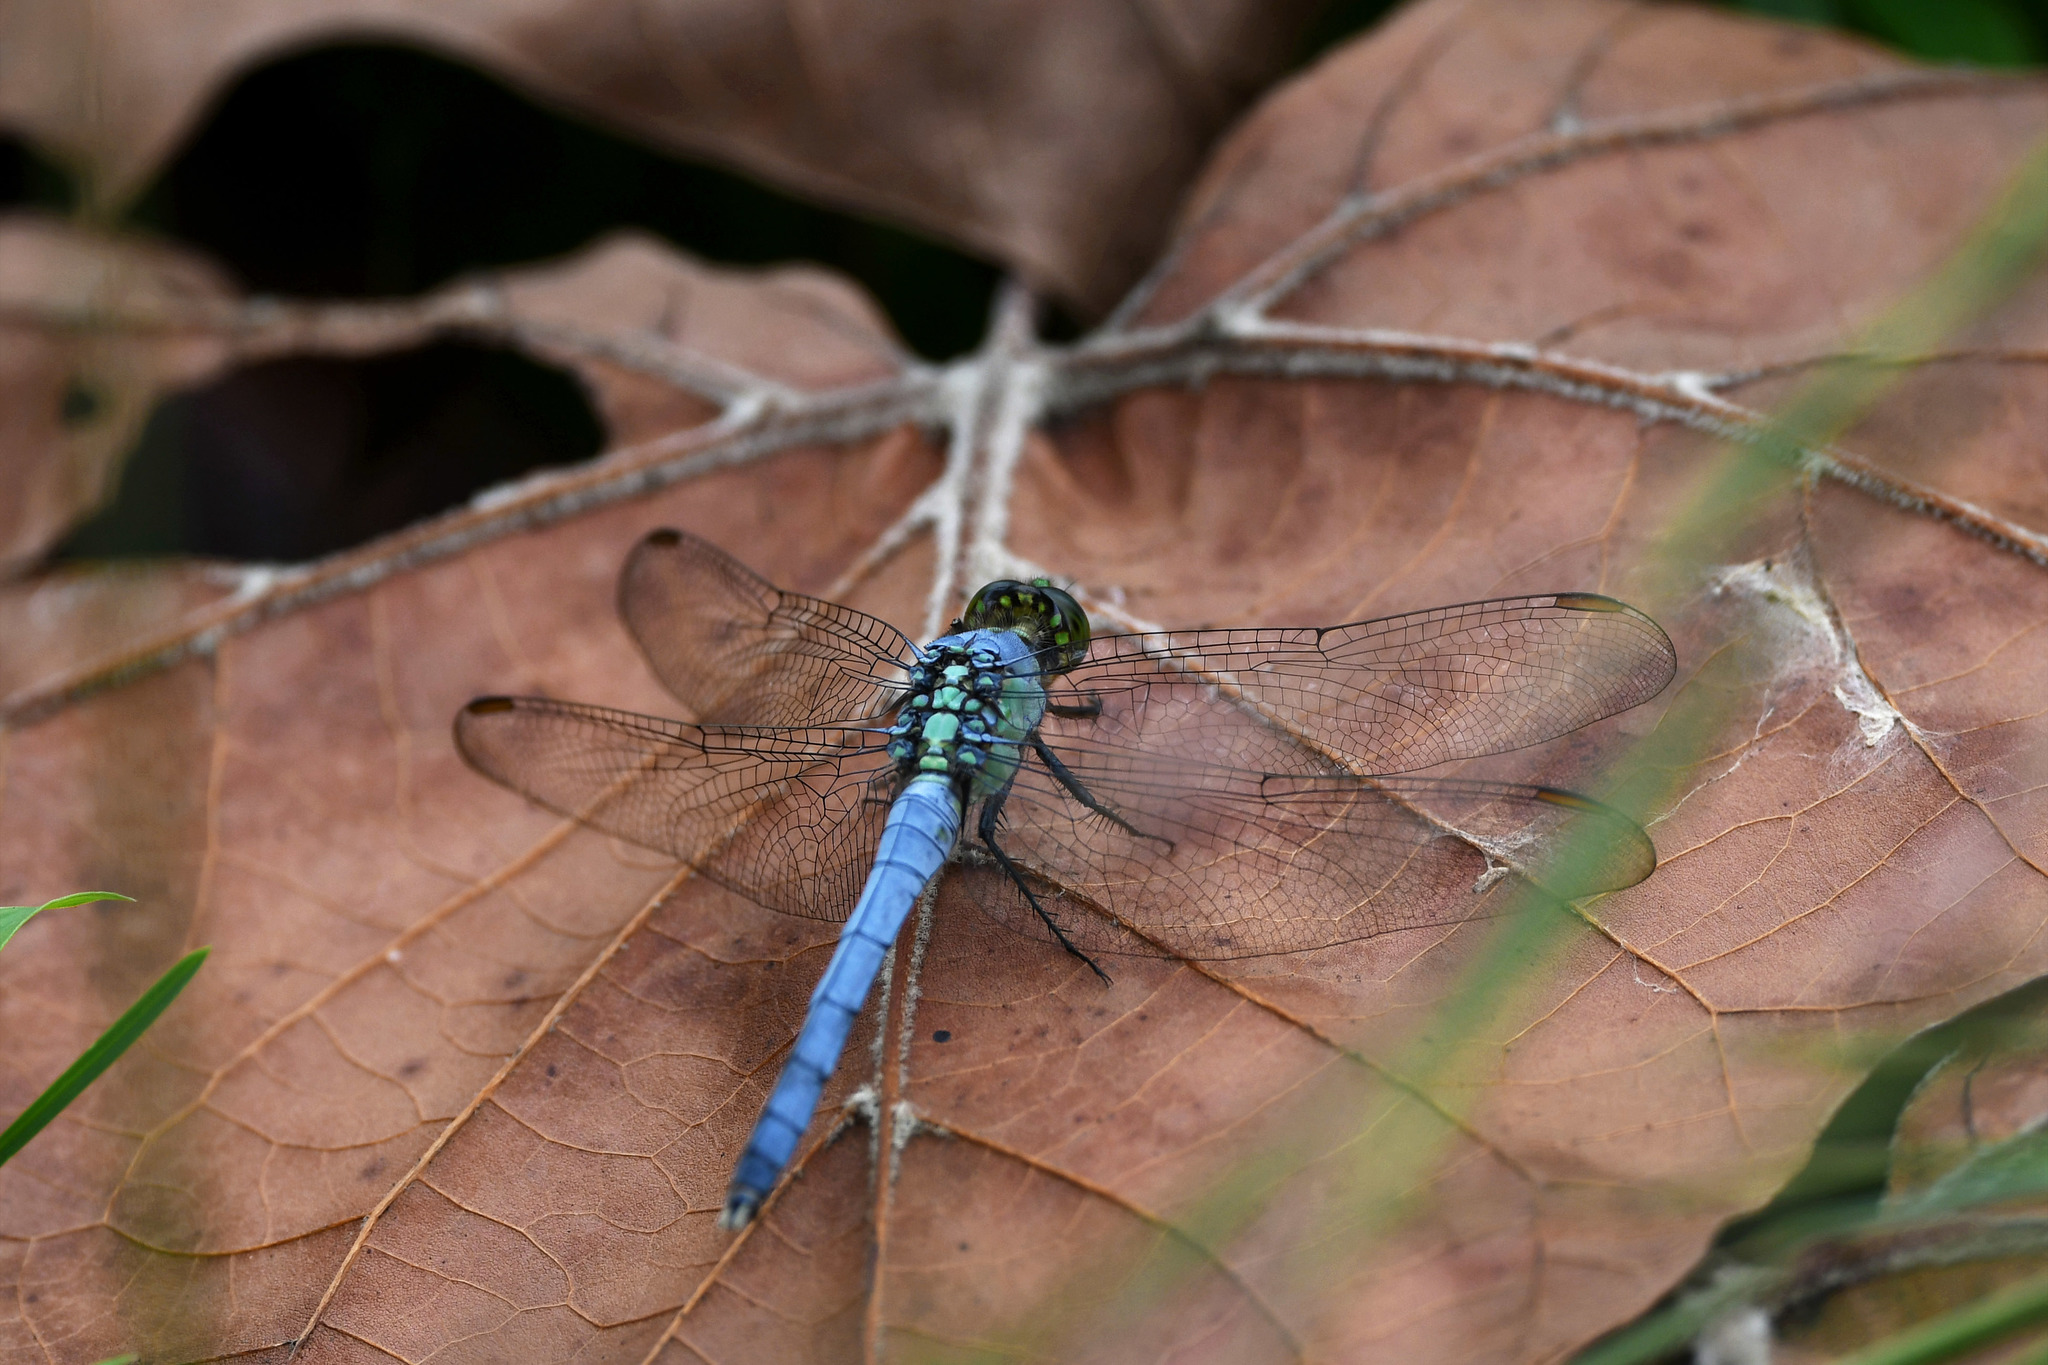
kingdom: Animalia
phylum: Arthropoda
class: Insecta
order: Odonata
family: Libellulidae
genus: Erythemis
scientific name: Erythemis simplicicollis
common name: Eastern pondhawk
